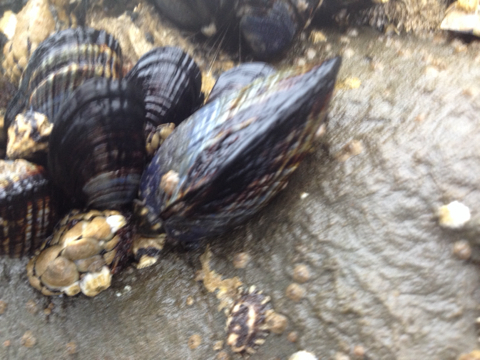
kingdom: Animalia
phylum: Mollusca
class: Bivalvia
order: Mytilida
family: Mytilidae
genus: Mytilus
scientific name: Mytilus californianus
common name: California mussel
